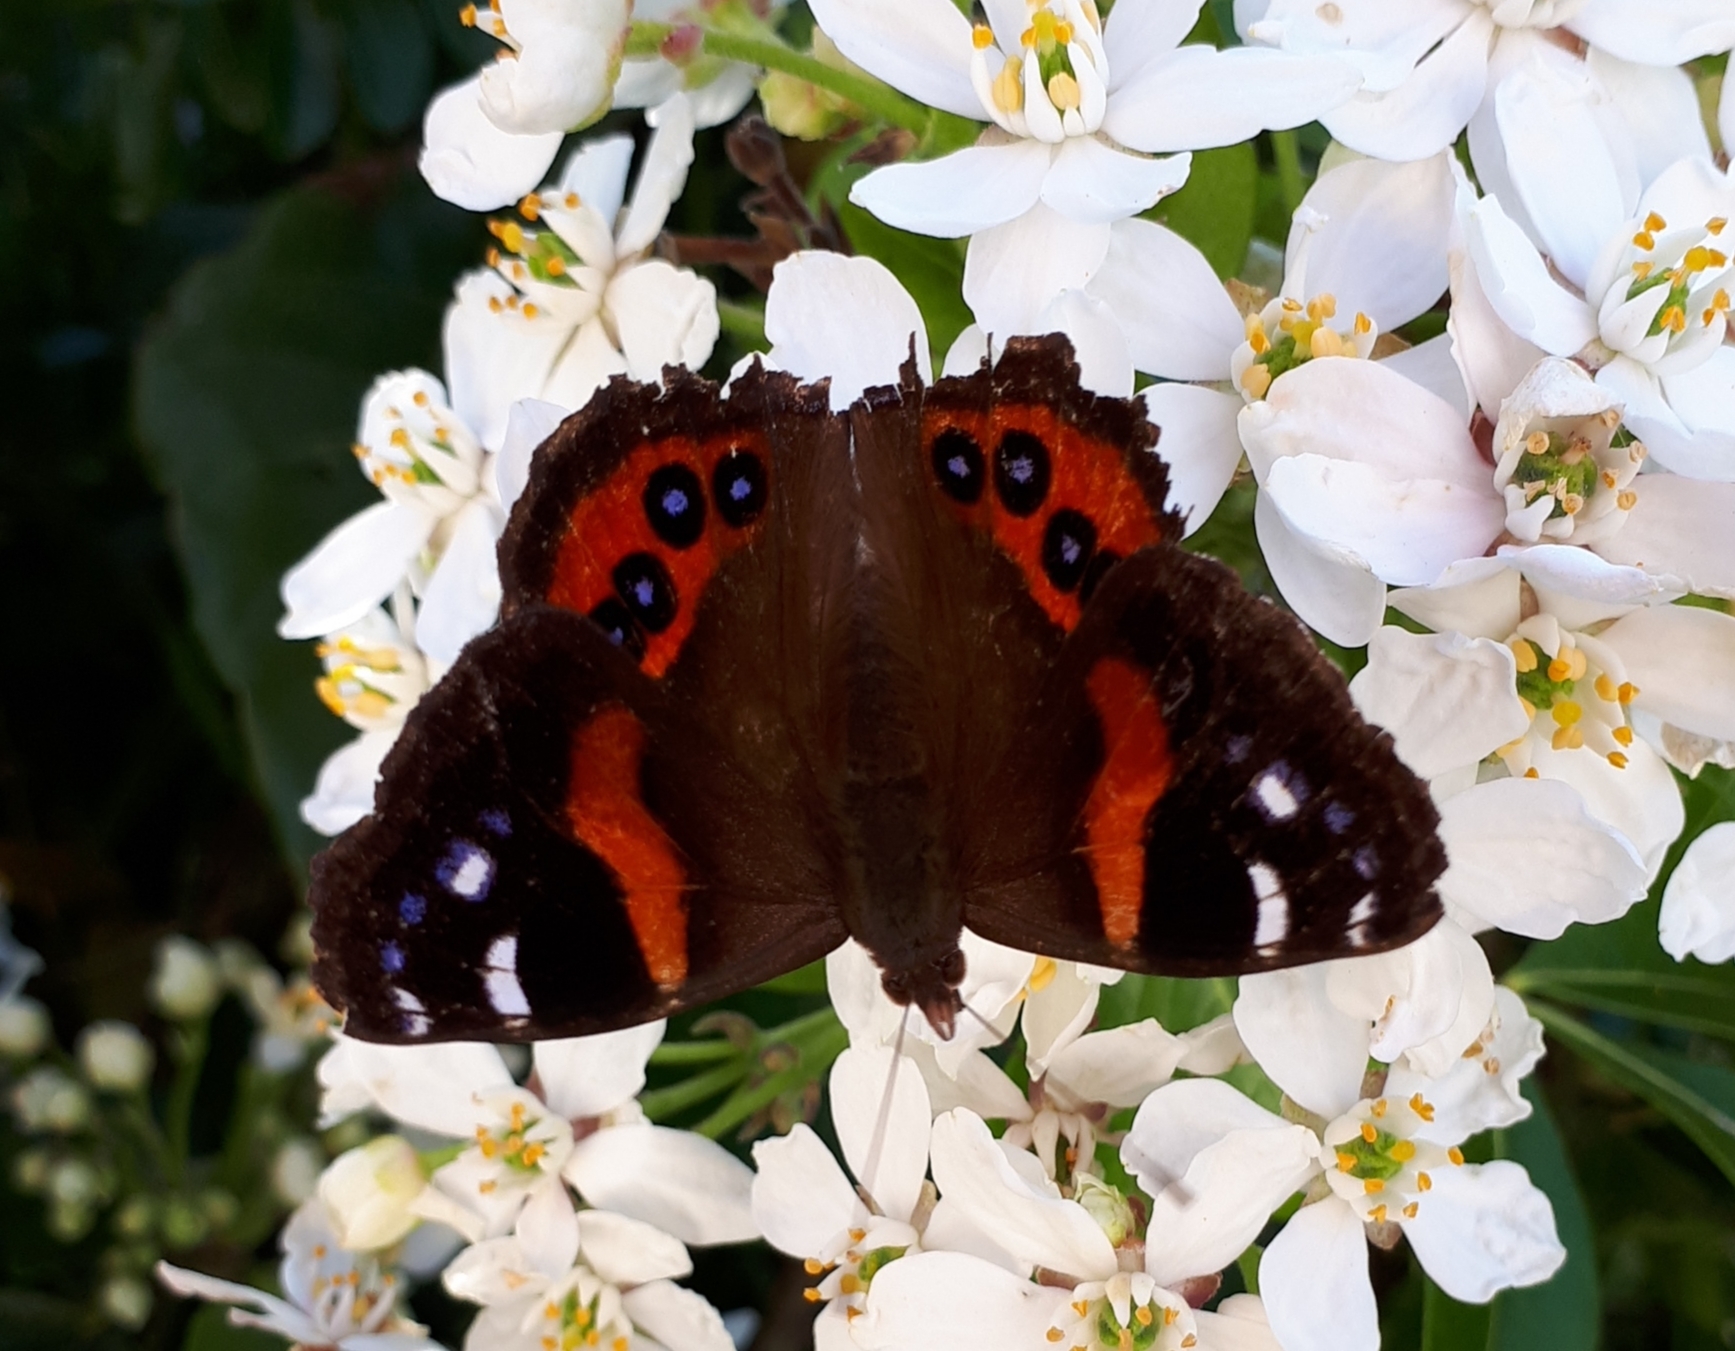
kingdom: Animalia
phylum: Arthropoda
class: Insecta
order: Lepidoptera
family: Nymphalidae
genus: Vanessa
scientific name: Vanessa gonerilla
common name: New zealand red admiral
